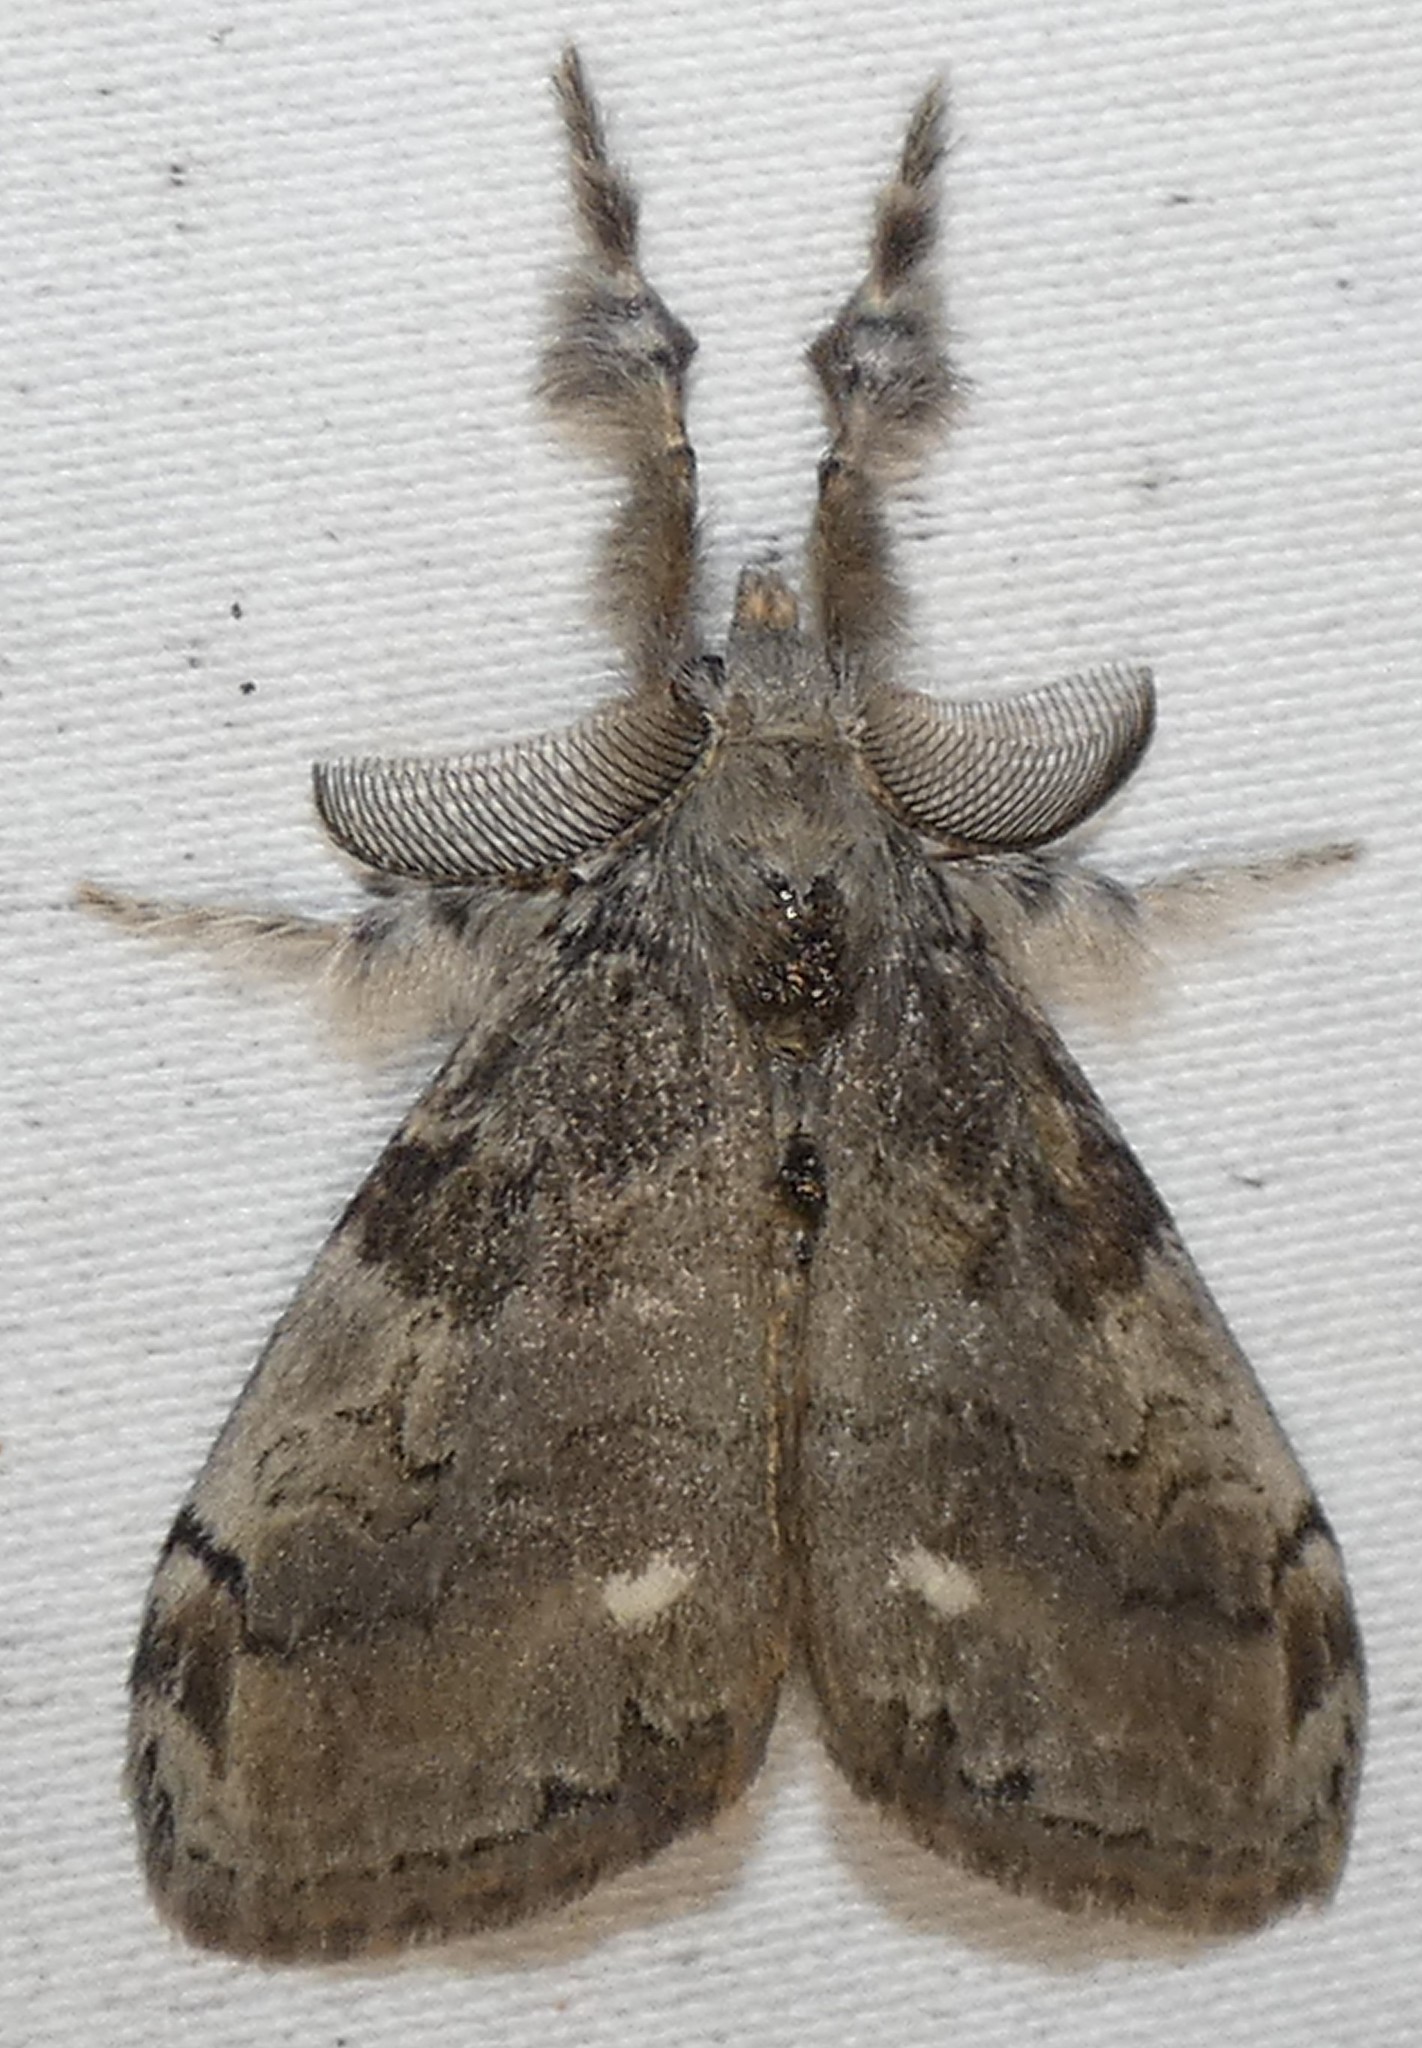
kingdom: Animalia
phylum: Arthropoda
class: Insecta
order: Lepidoptera
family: Erebidae
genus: Orgyia
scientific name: Orgyia leucostigma
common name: White-marked tussock moth
